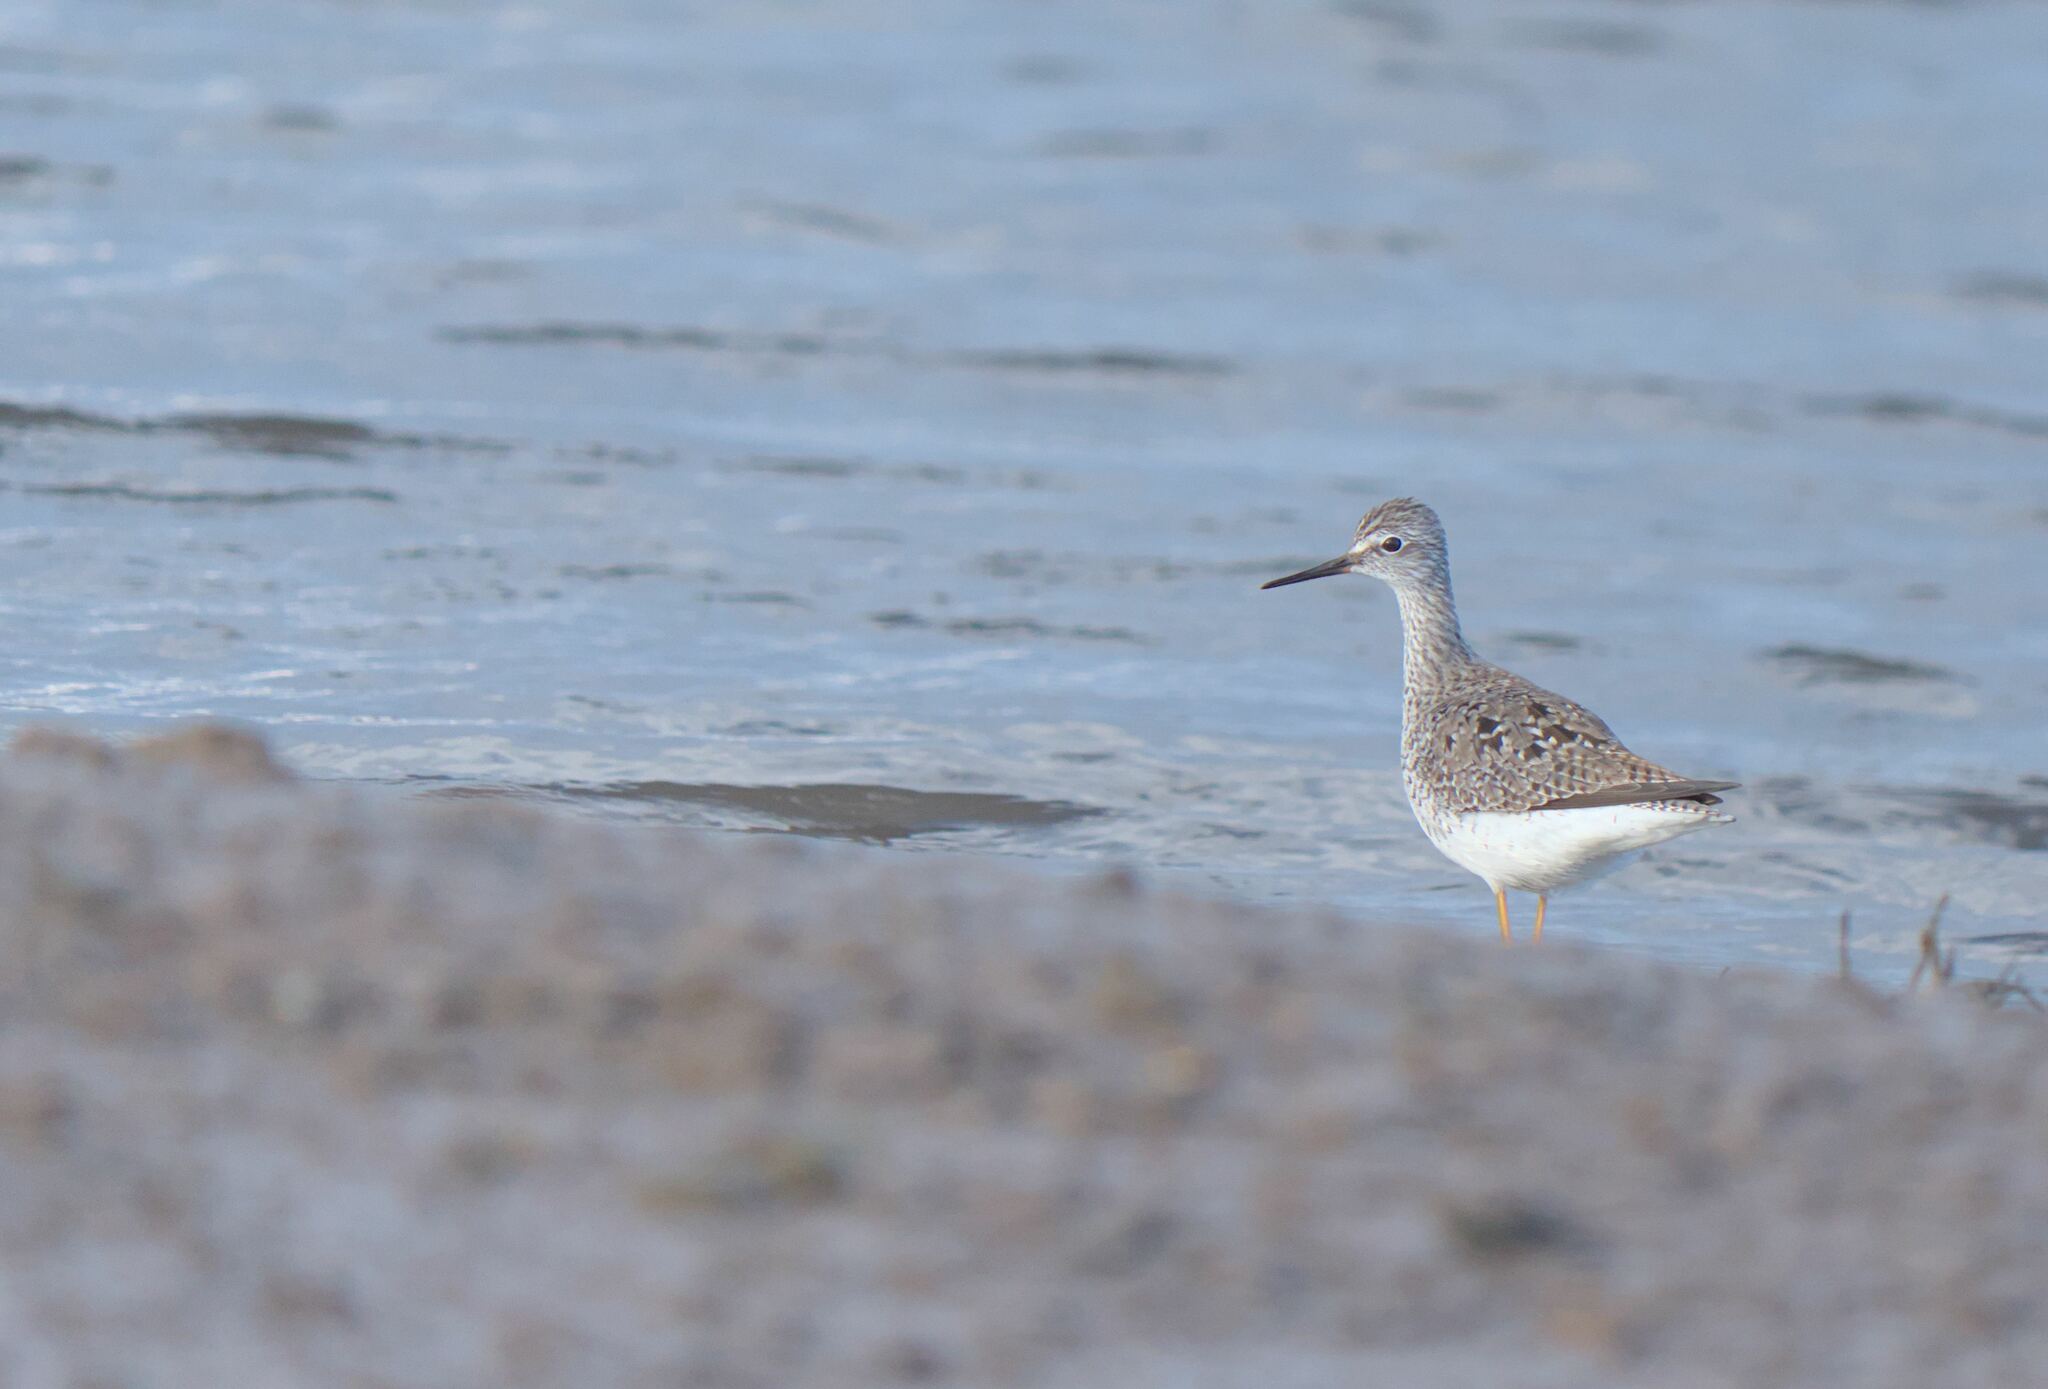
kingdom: Animalia
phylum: Chordata
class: Aves
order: Charadriiformes
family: Scolopacidae
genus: Tringa
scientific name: Tringa flavipes
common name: Lesser yellowlegs
